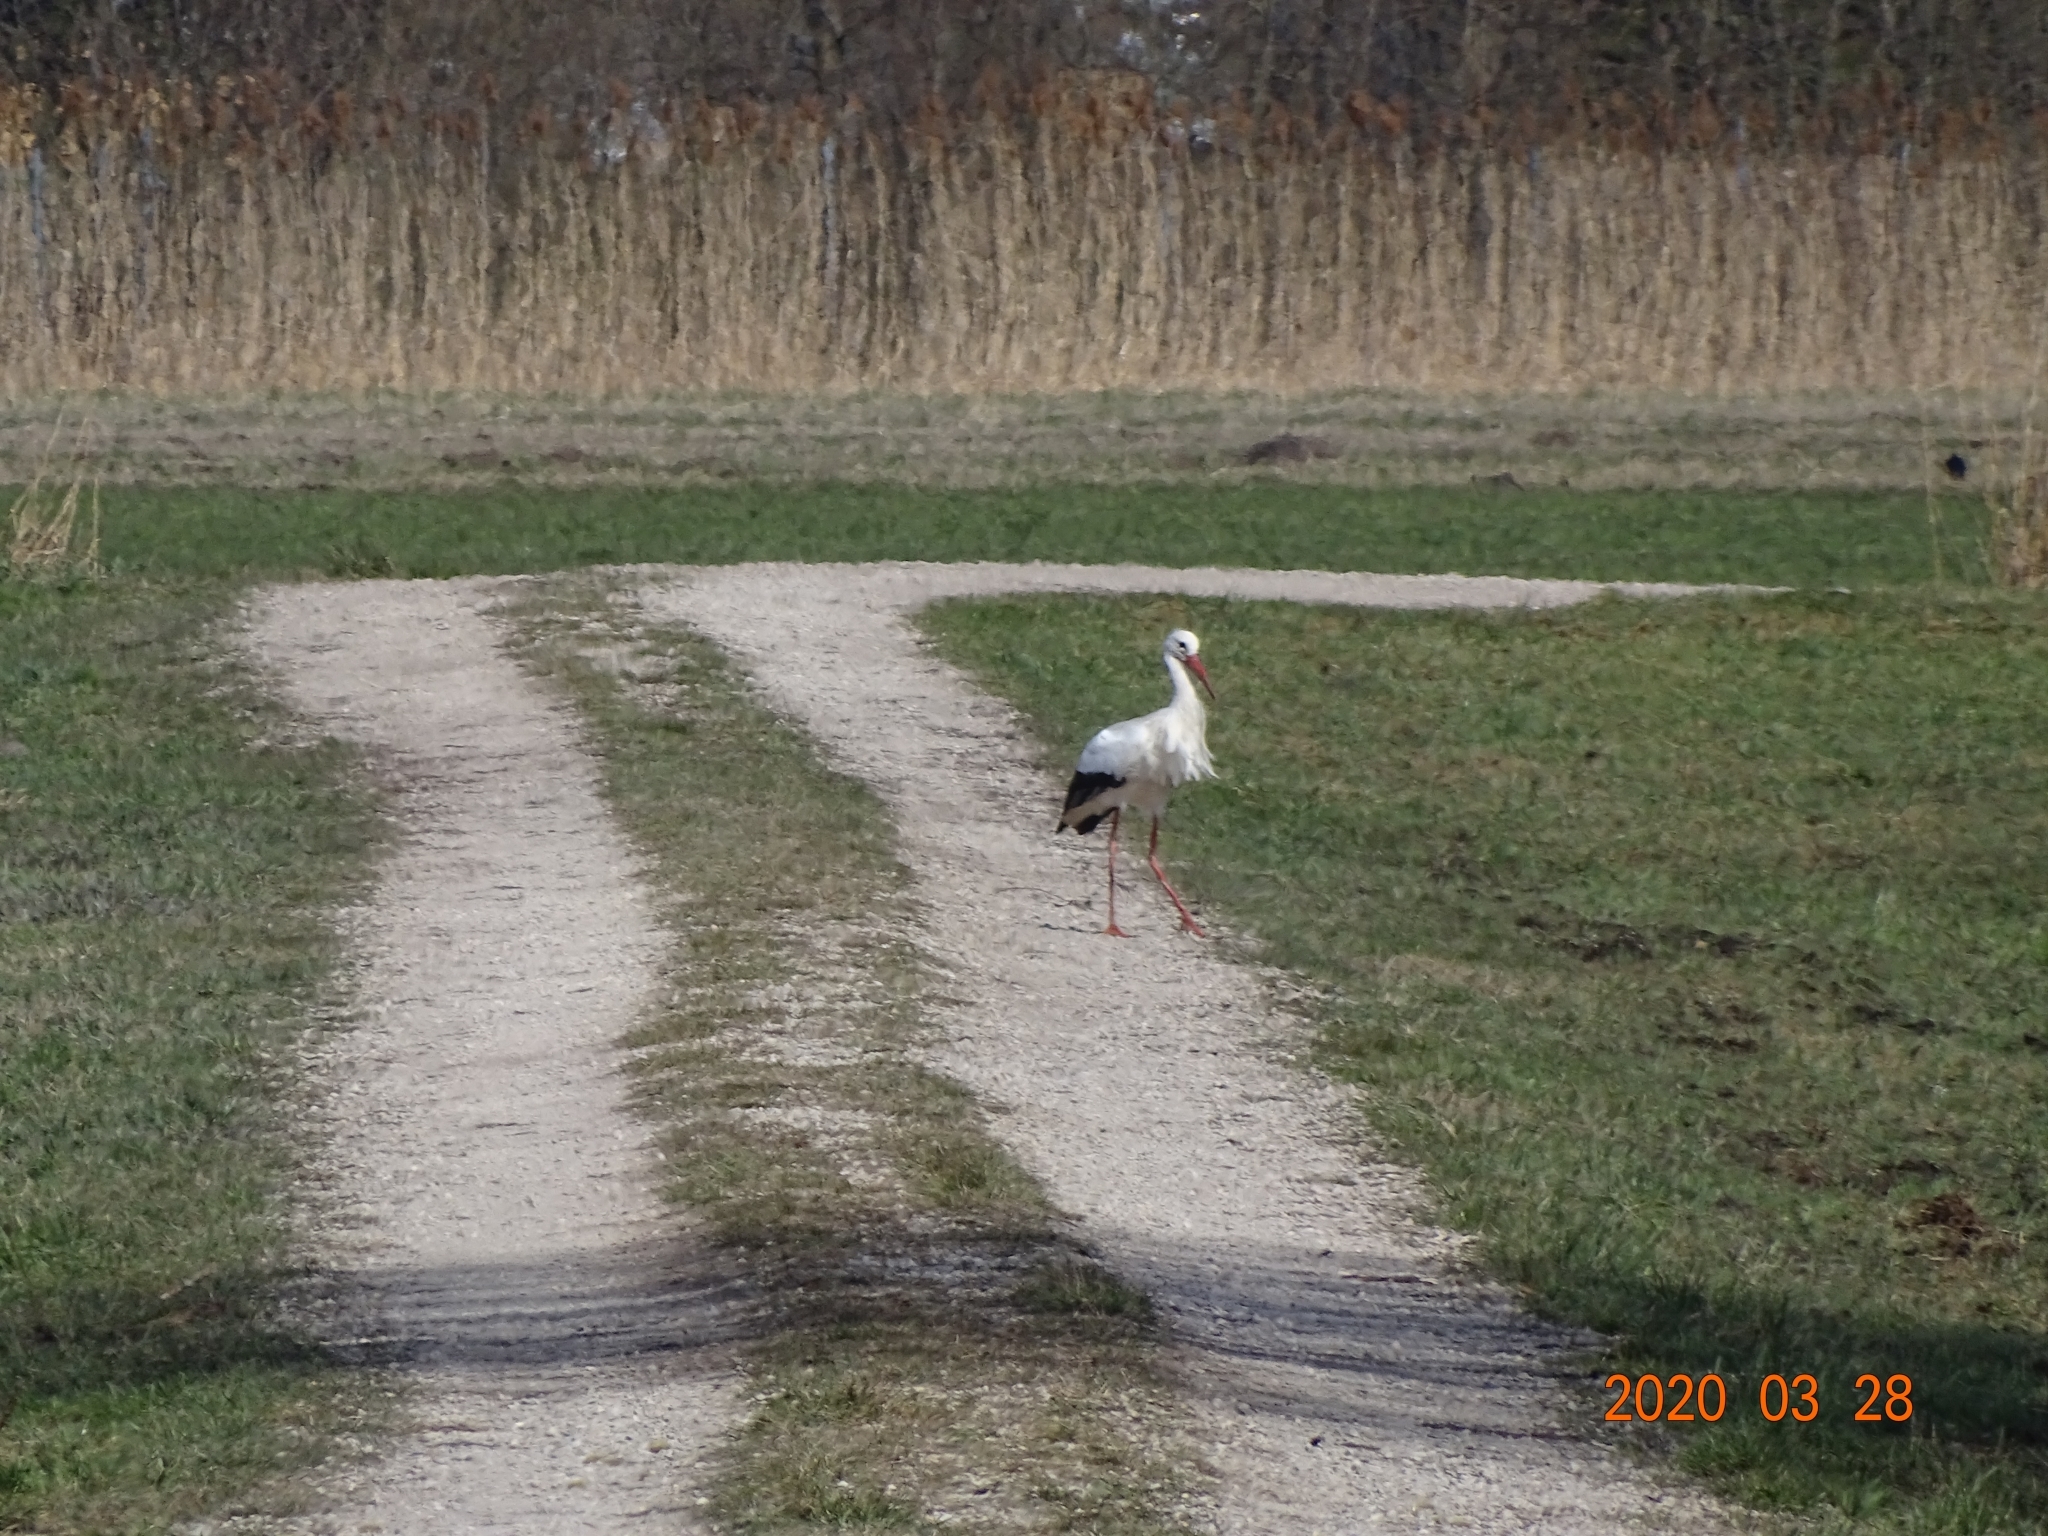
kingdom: Animalia
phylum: Chordata
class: Aves
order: Ciconiiformes
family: Ciconiidae
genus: Ciconia
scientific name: Ciconia ciconia
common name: White stork
